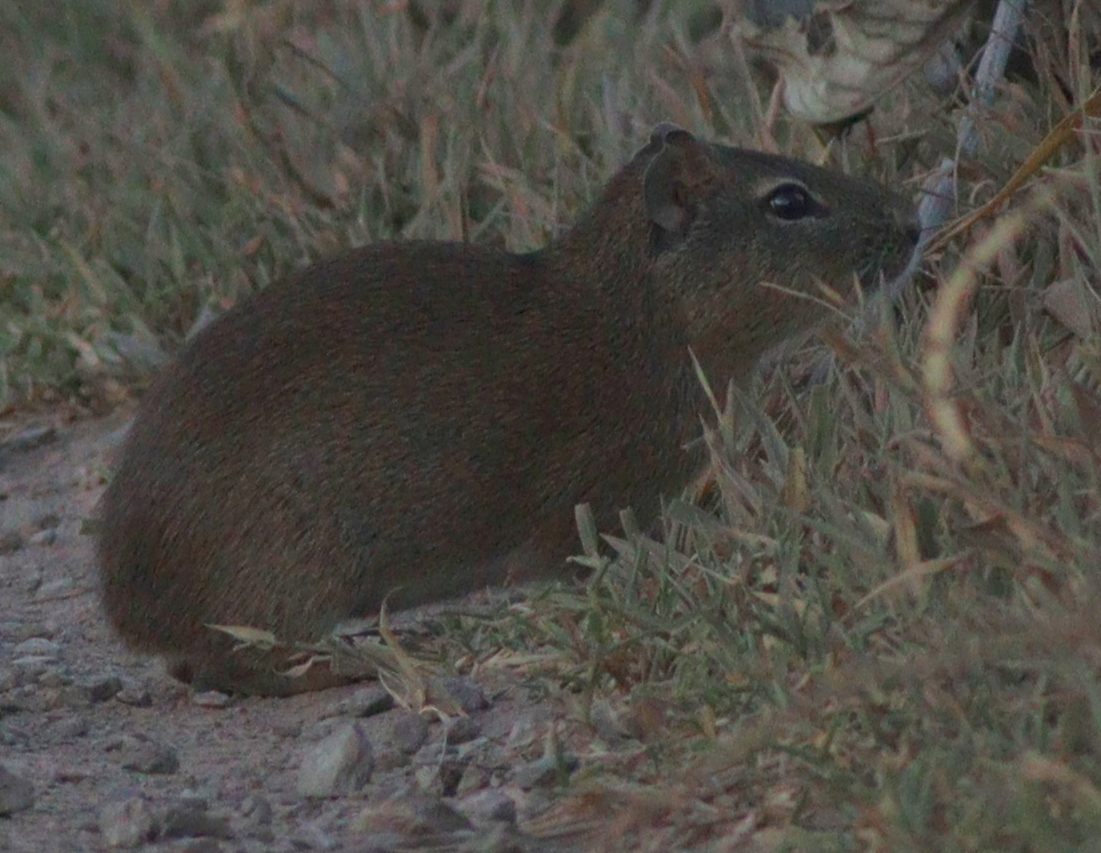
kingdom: Animalia
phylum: Chordata
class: Mammalia
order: Rodentia
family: Caviidae
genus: Cavia
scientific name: Cavia aperea
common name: Brazilian guinea pig
